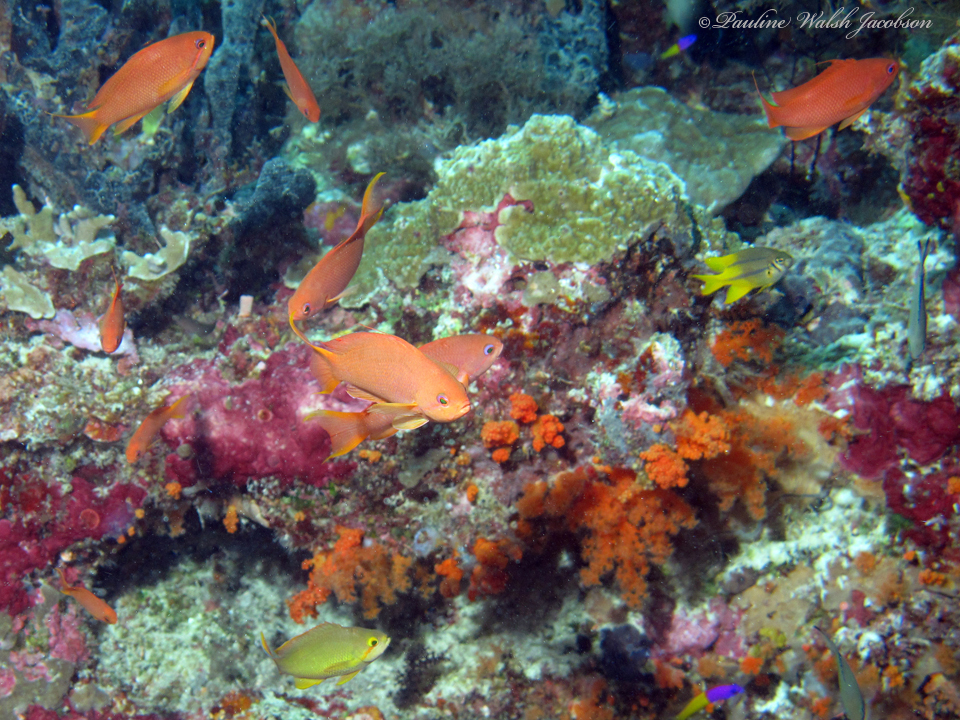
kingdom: Animalia
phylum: Chordata
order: Perciformes
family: Serranidae
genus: Pseudanthias
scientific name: Pseudanthias squamipinnis
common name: Scalefin anthias
